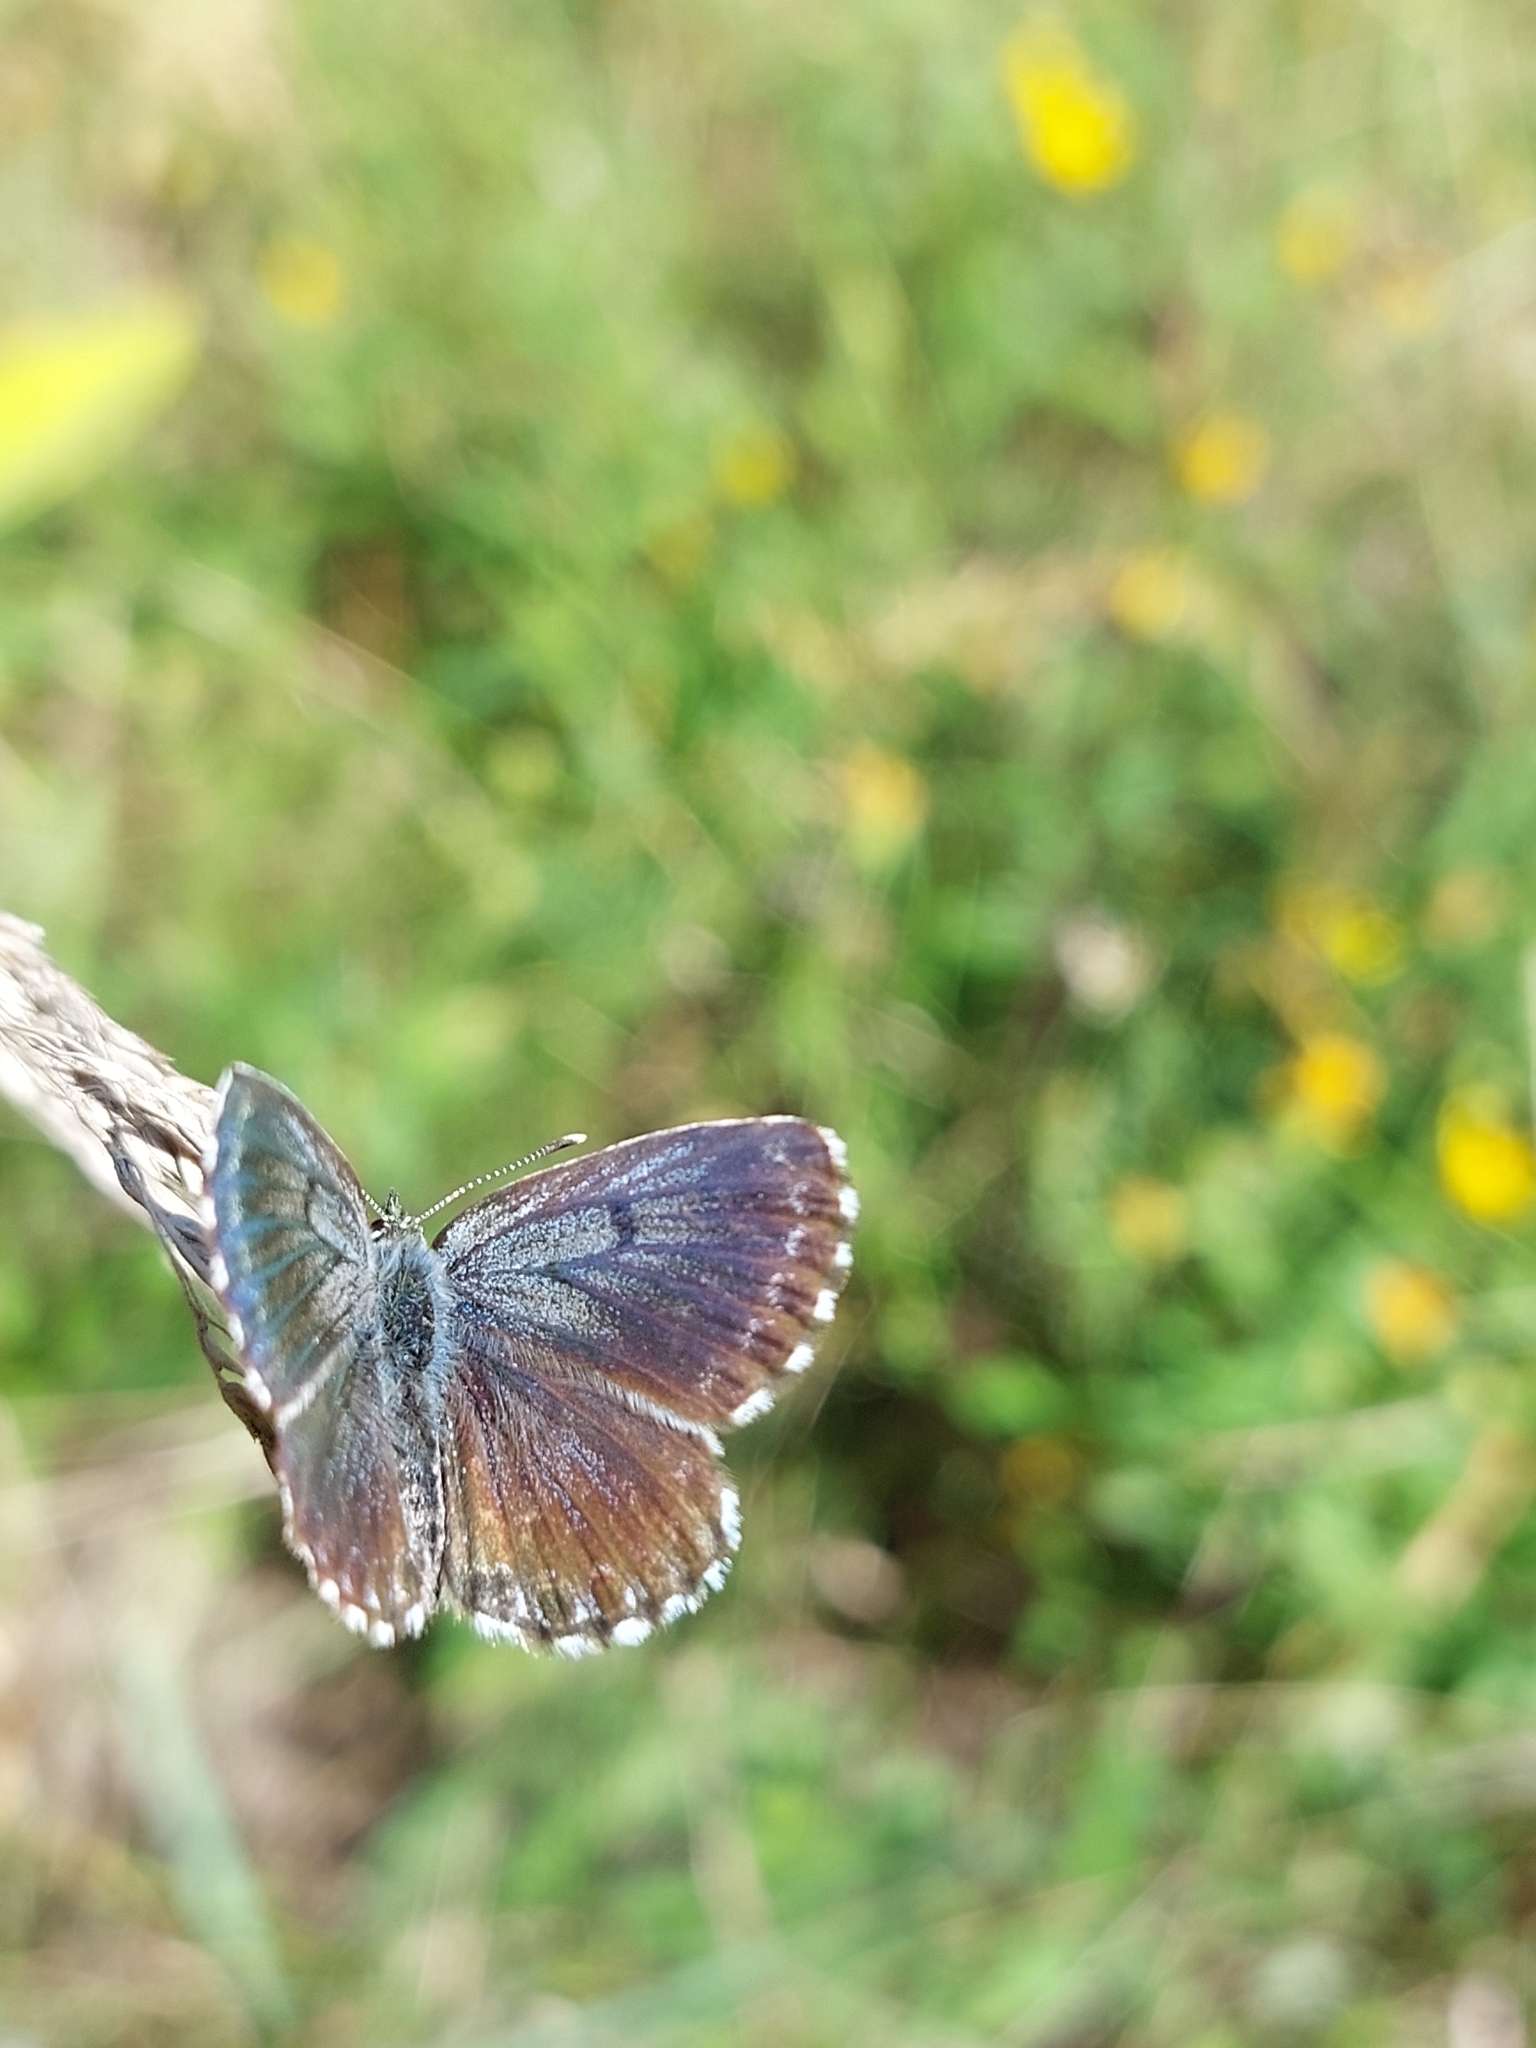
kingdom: Animalia
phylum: Arthropoda
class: Insecta
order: Lepidoptera
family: Lycaenidae
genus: Scolitantides
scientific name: Scolitantides orion
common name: Chequered blue
